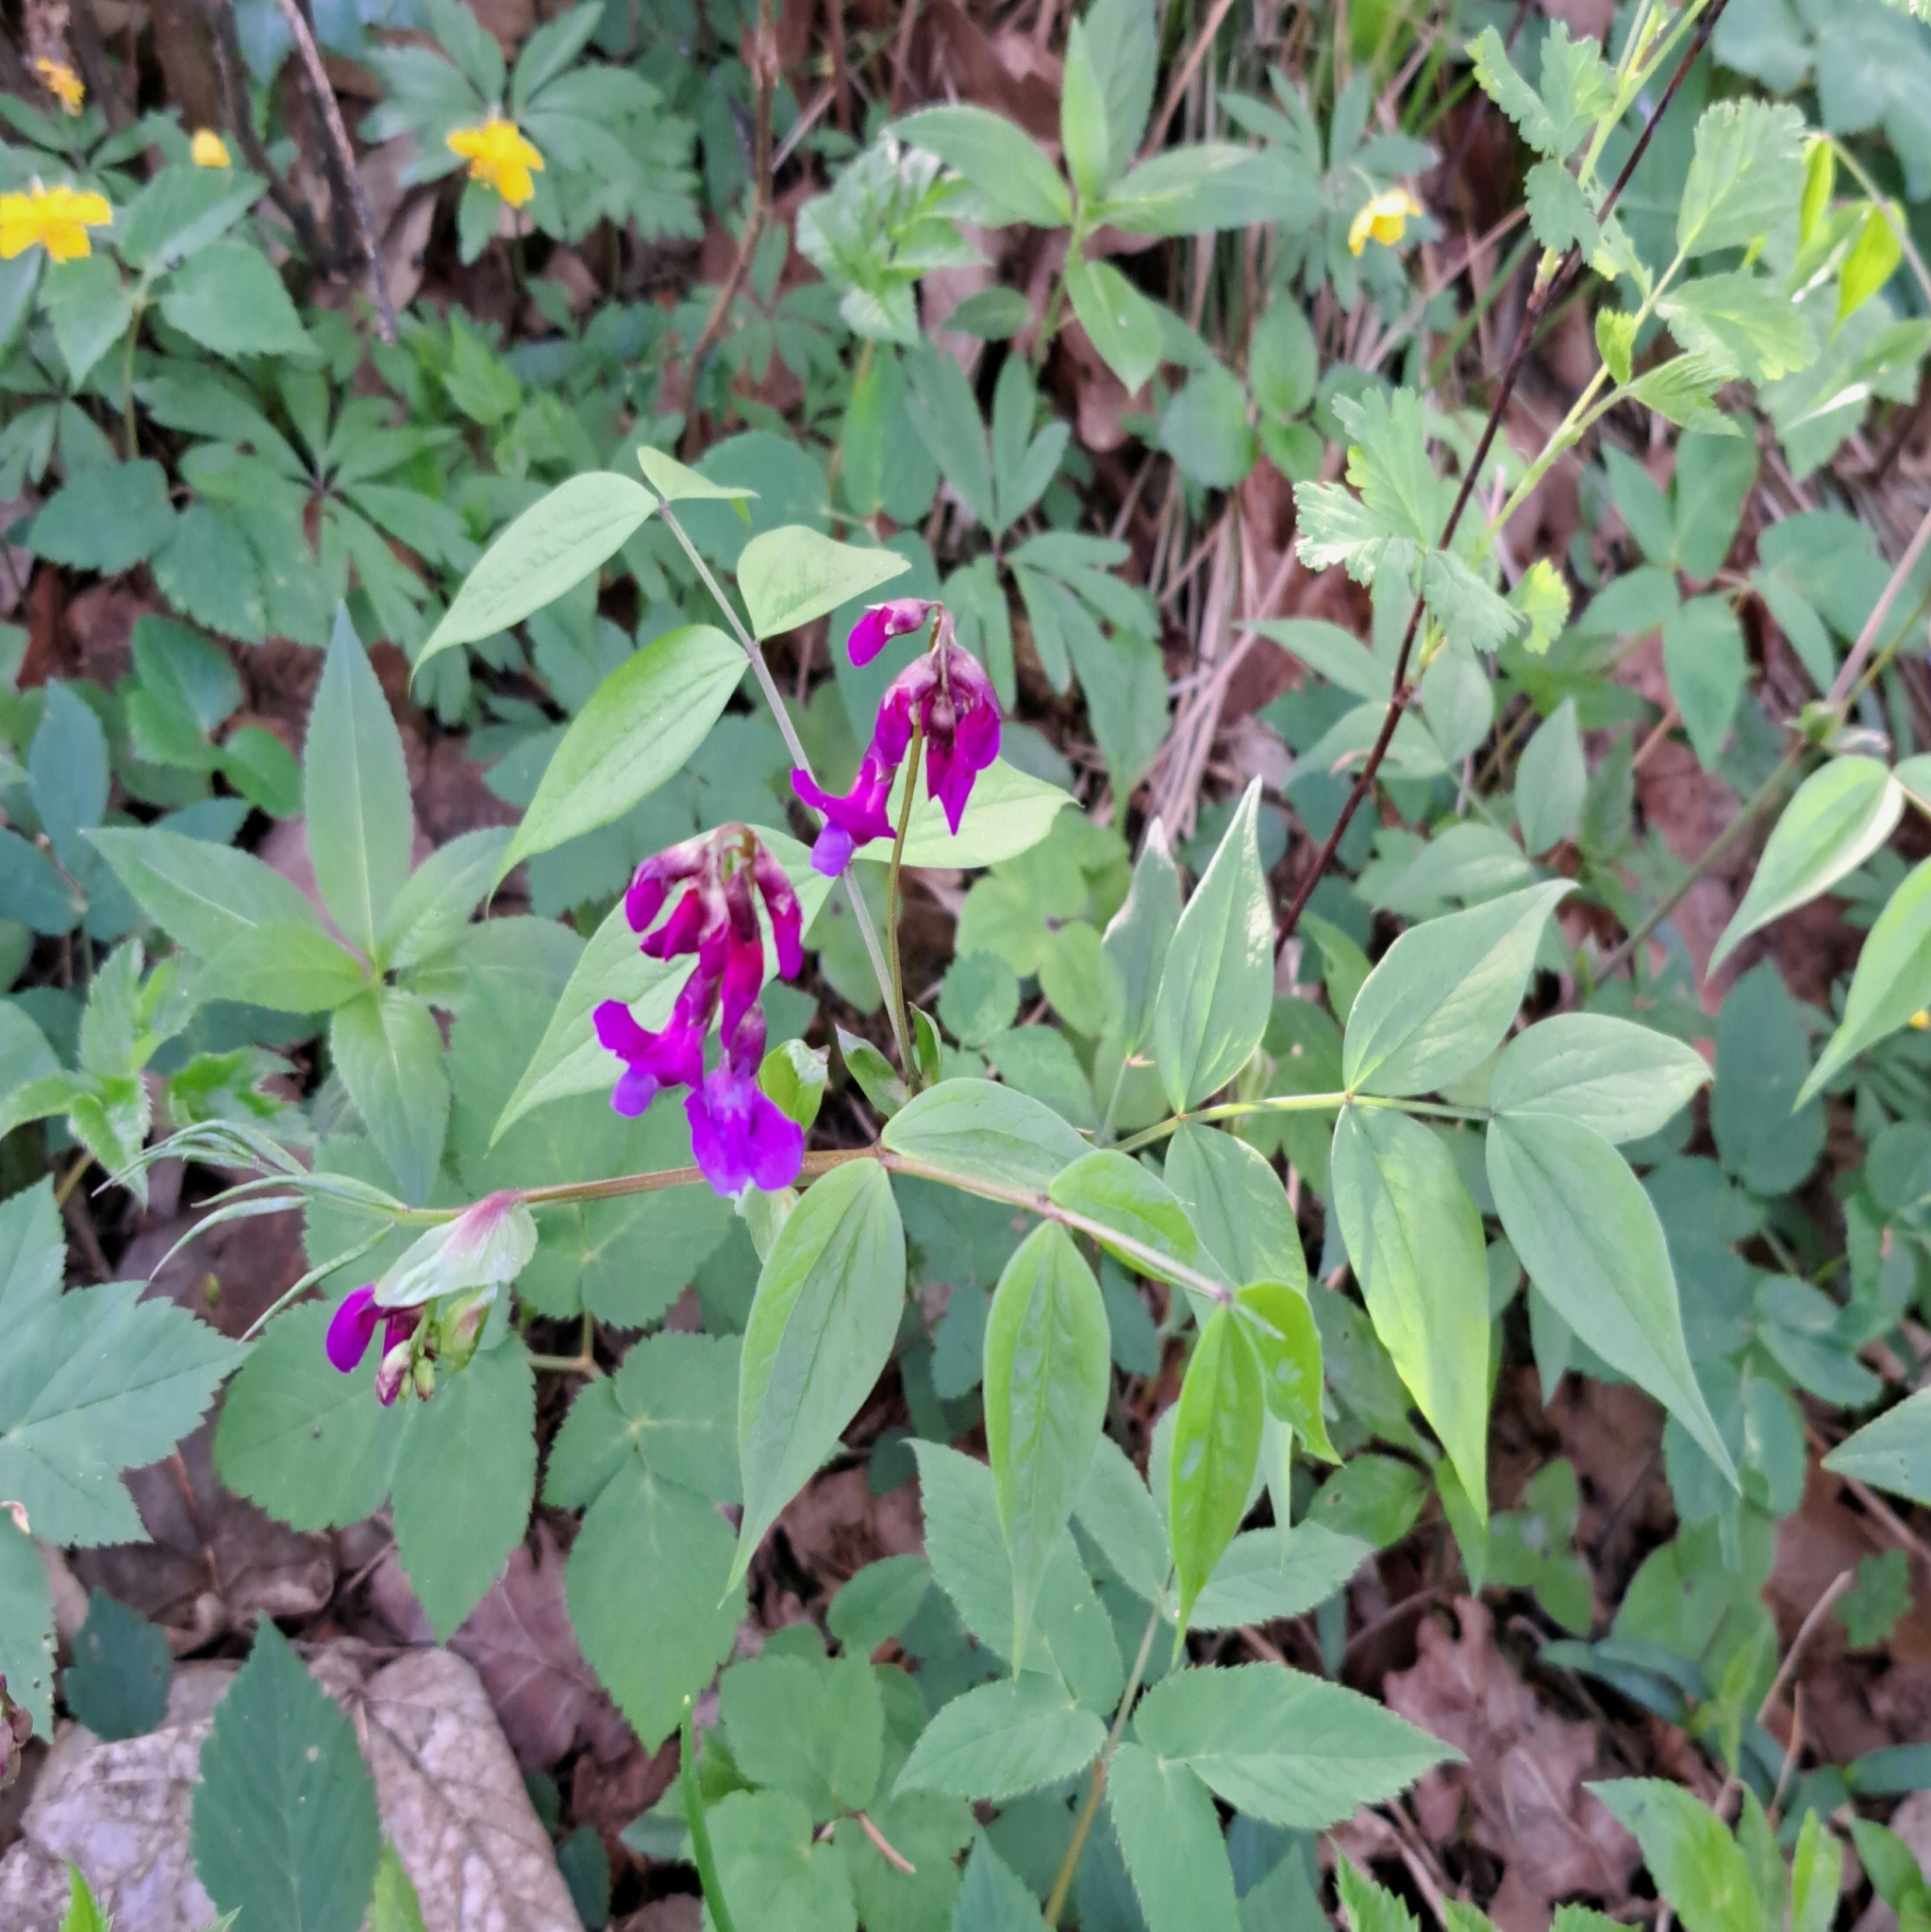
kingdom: Plantae
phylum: Tracheophyta
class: Magnoliopsida
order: Fabales
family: Fabaceae
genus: Lathyrus
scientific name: Lathyrus vernus
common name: Spring pea
